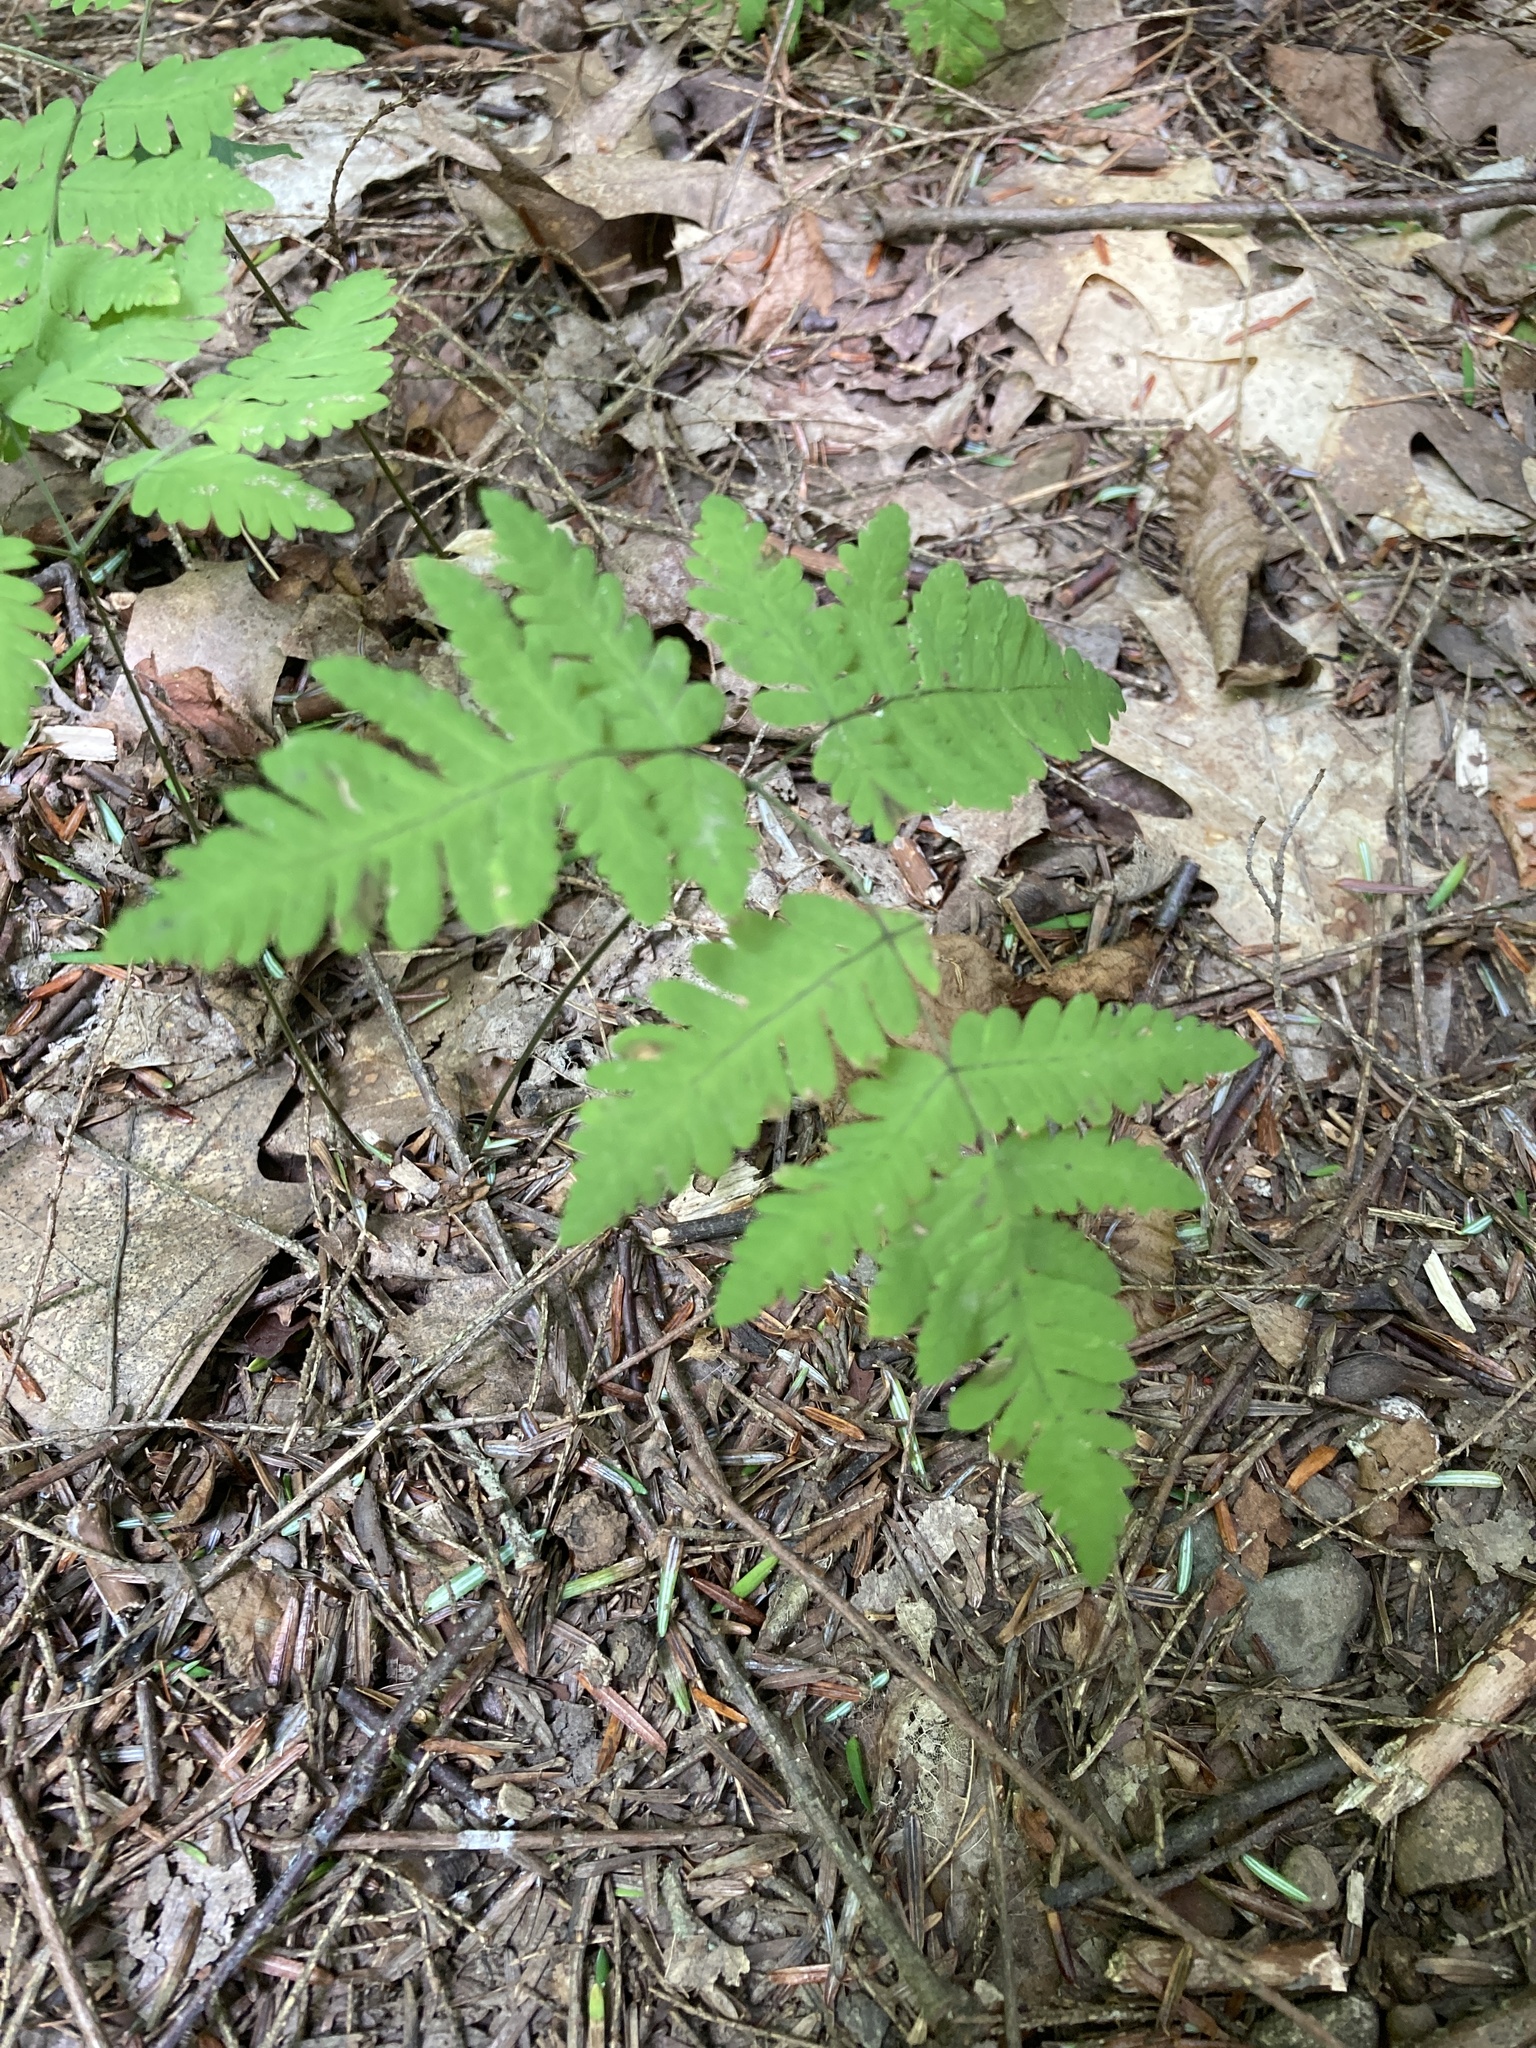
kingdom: Plantae
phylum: Tracheophyta
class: Polypodiopsida
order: Polypodiales
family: Cystopteridaceae
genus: Gymnocarpium
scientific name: Gymnocarpium dryopteris
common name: Oak fern
